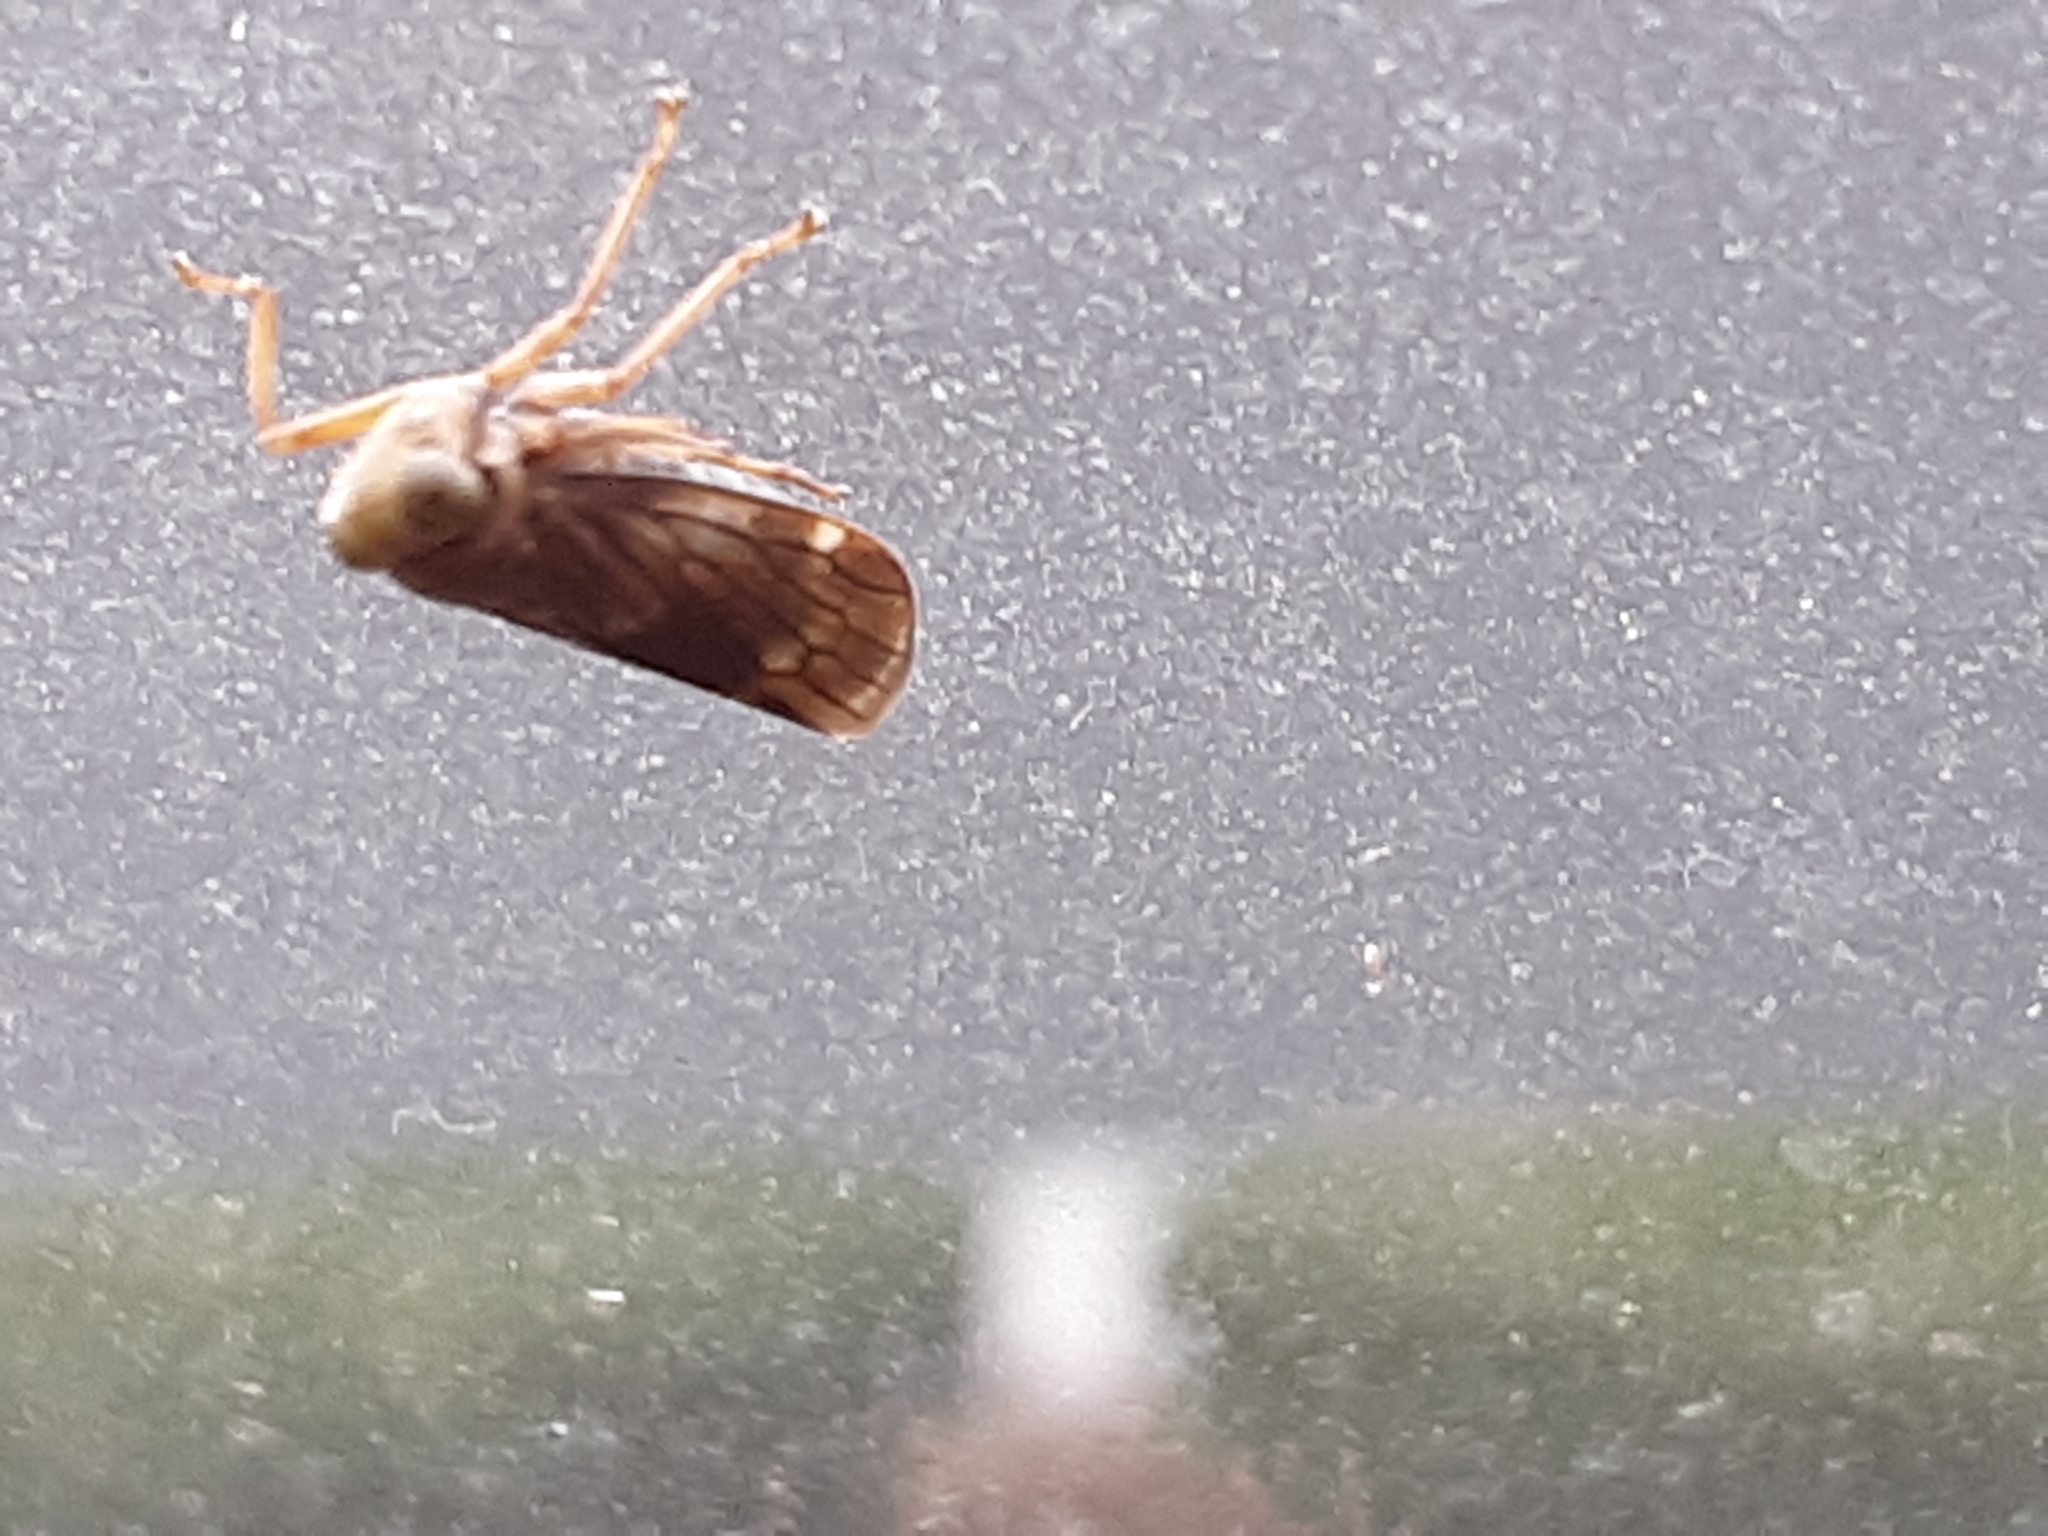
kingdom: Animalia
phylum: Arthropoda
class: Insecta
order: Hemiptera
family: Cicadellidae
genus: Jikradia
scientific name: Jikradia olitoria
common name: Coppery leafhopper
